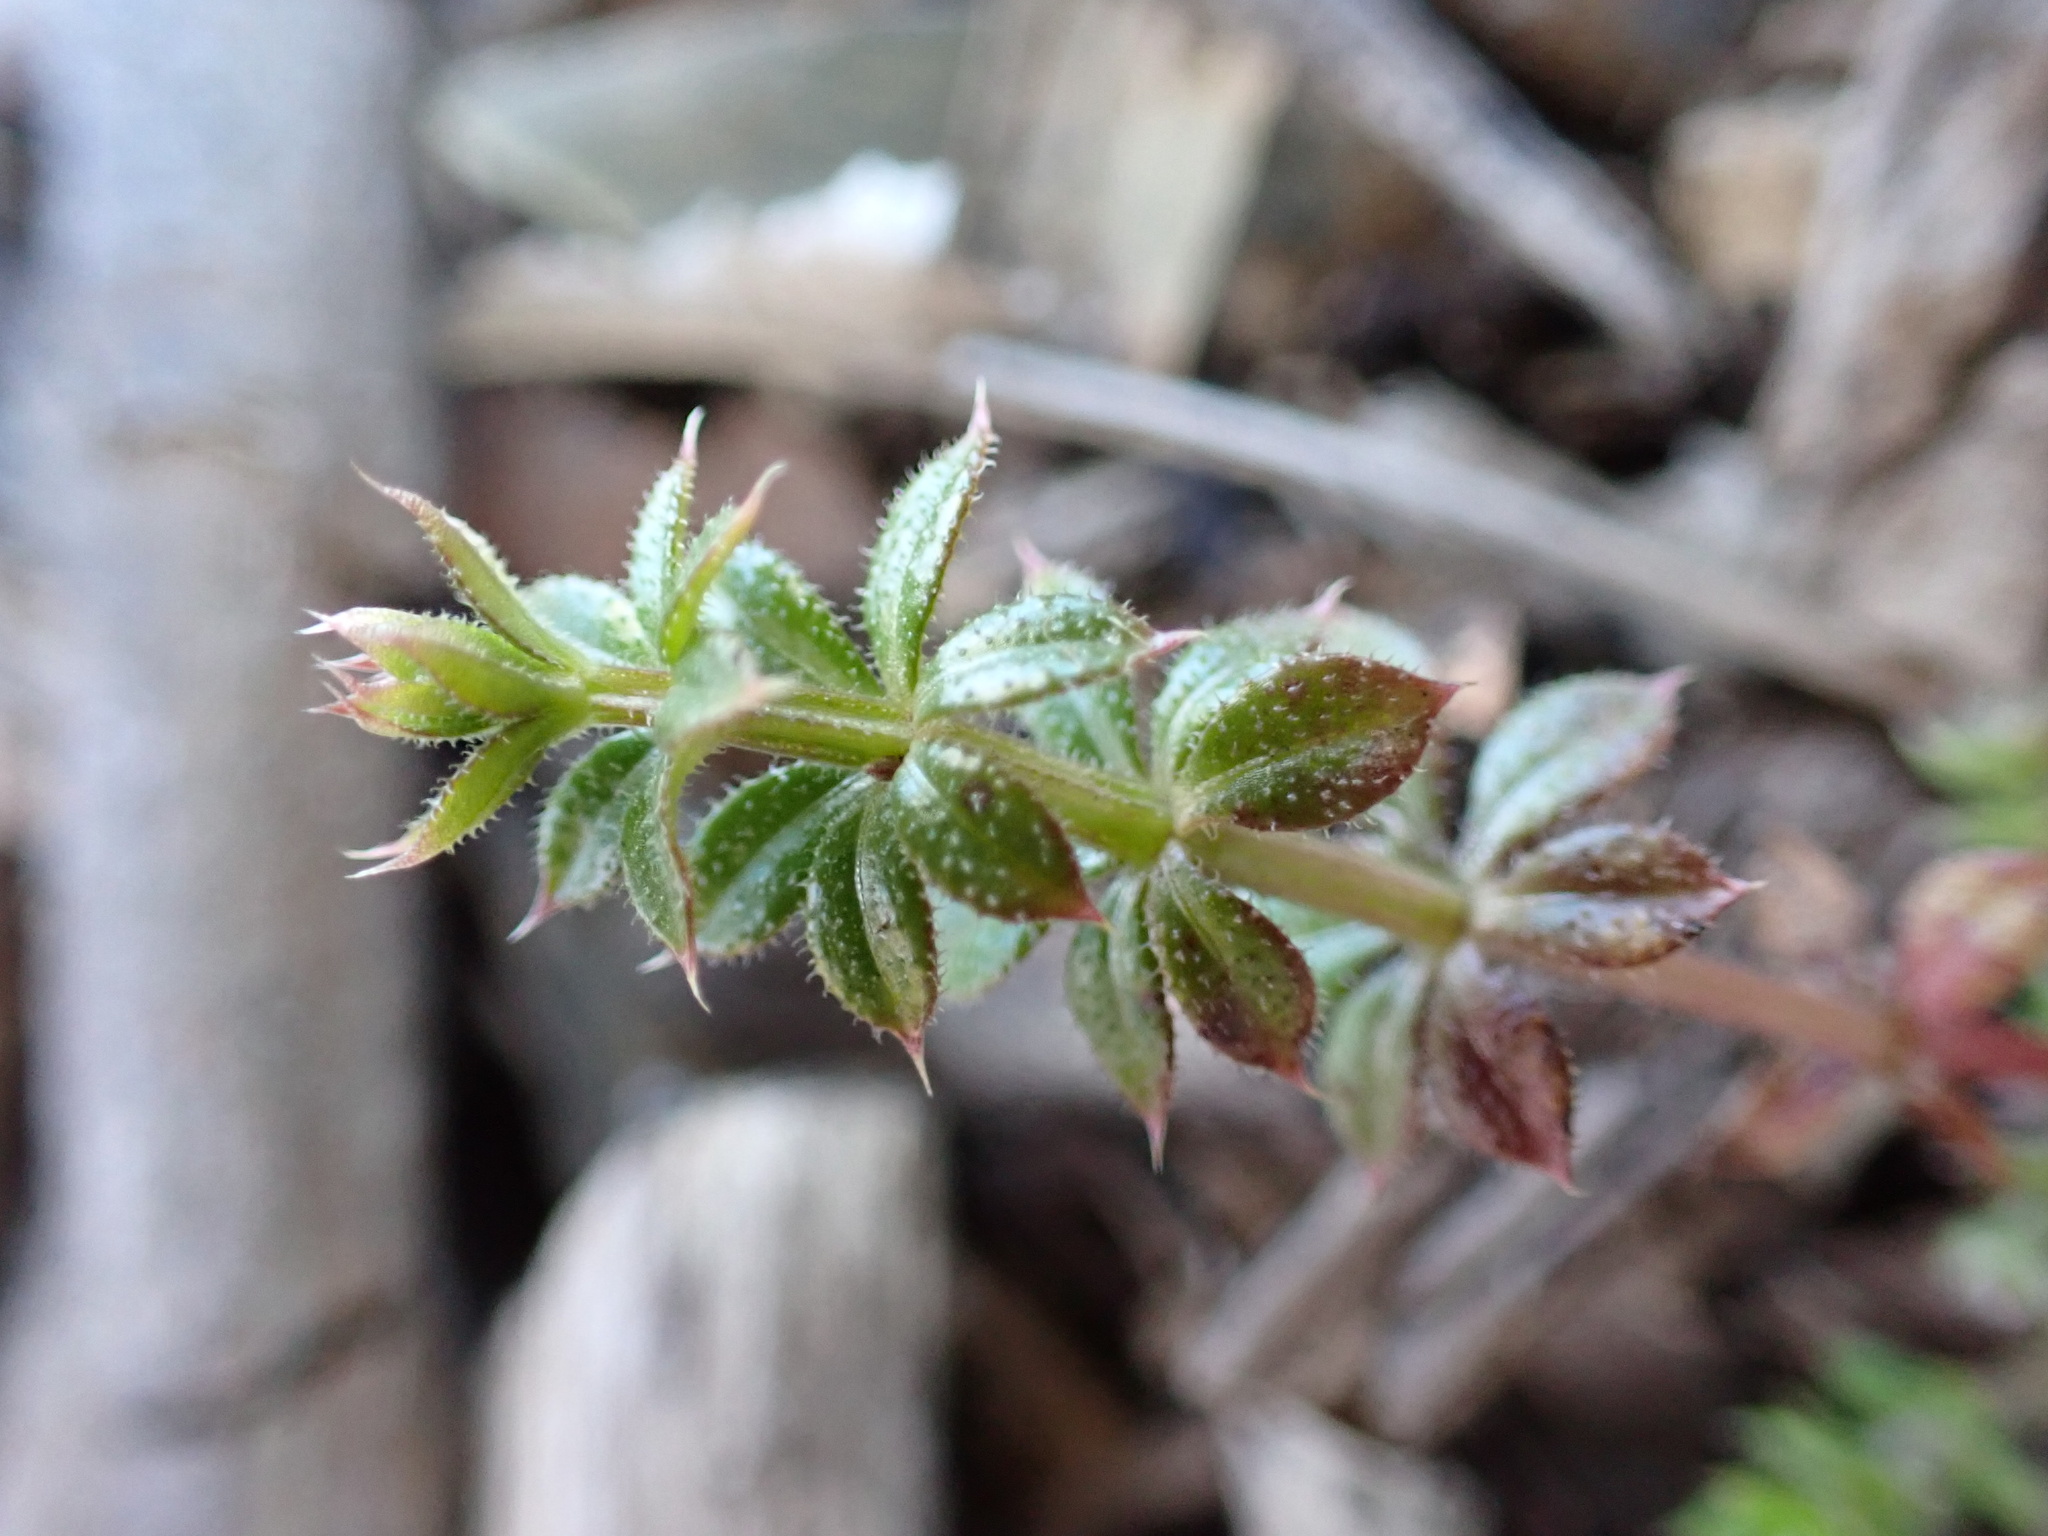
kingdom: Plantae
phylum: Tracheophyta
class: Magnoliopsida
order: Gentianales
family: Rubiaceae
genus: Galium
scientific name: Galium aparine
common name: Cleavers
